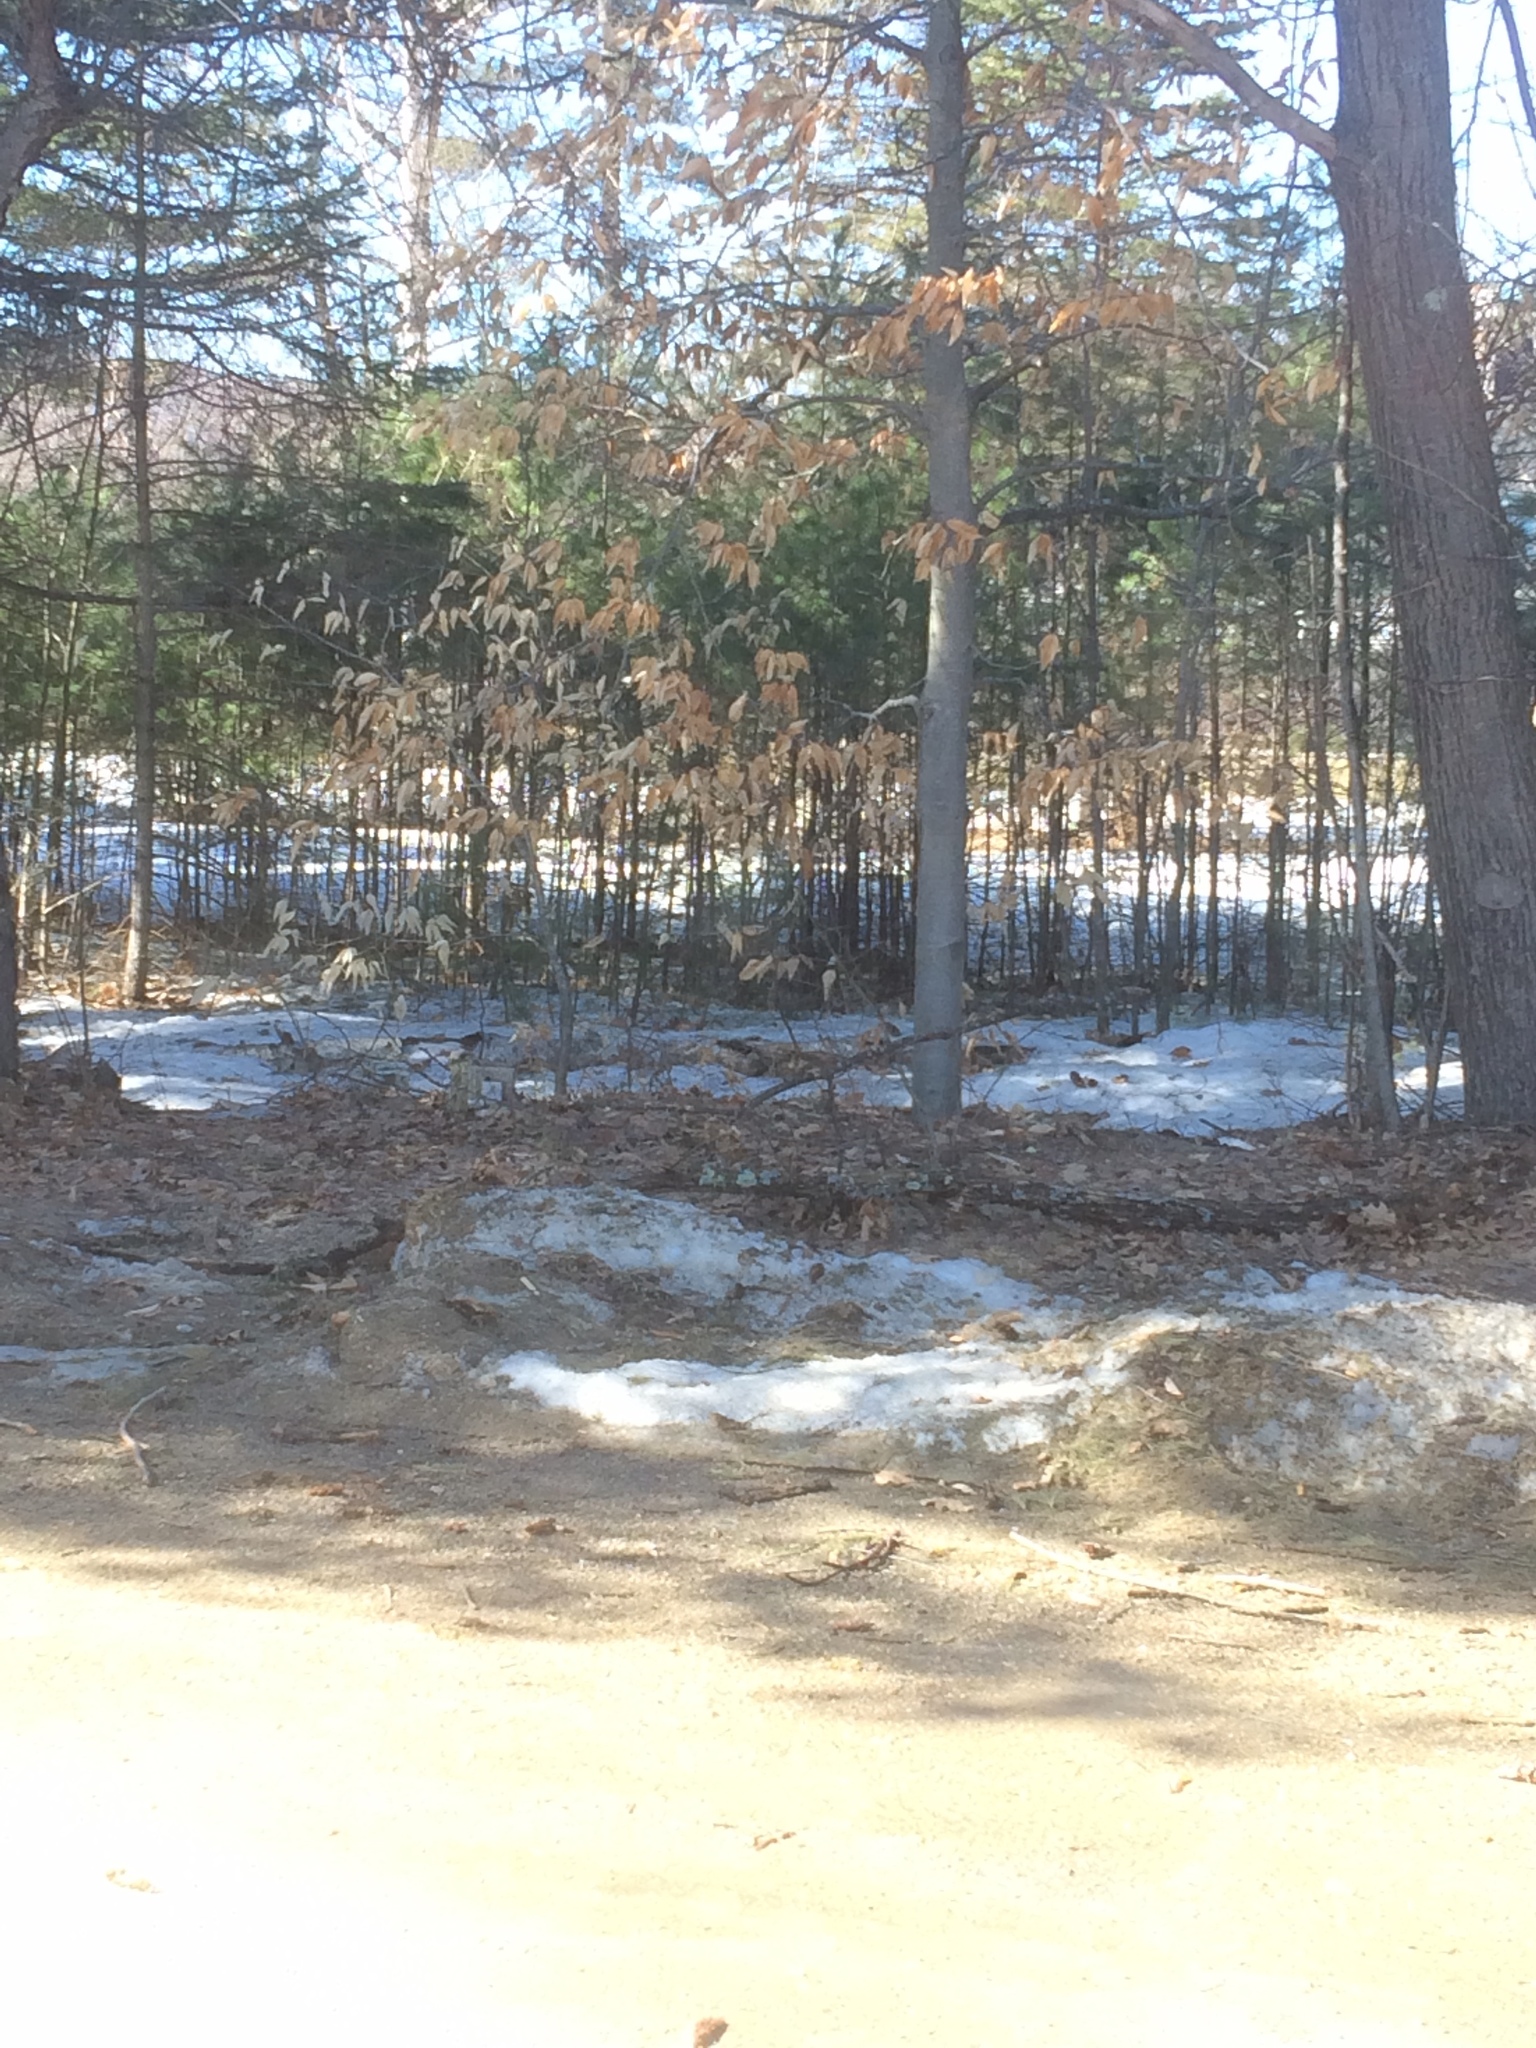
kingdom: Plantae
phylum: Tracheophyta
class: Magnoliopsida
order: Fagales
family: Fagaceae
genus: Fagus
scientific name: Fagus grandifolia
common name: American beech
